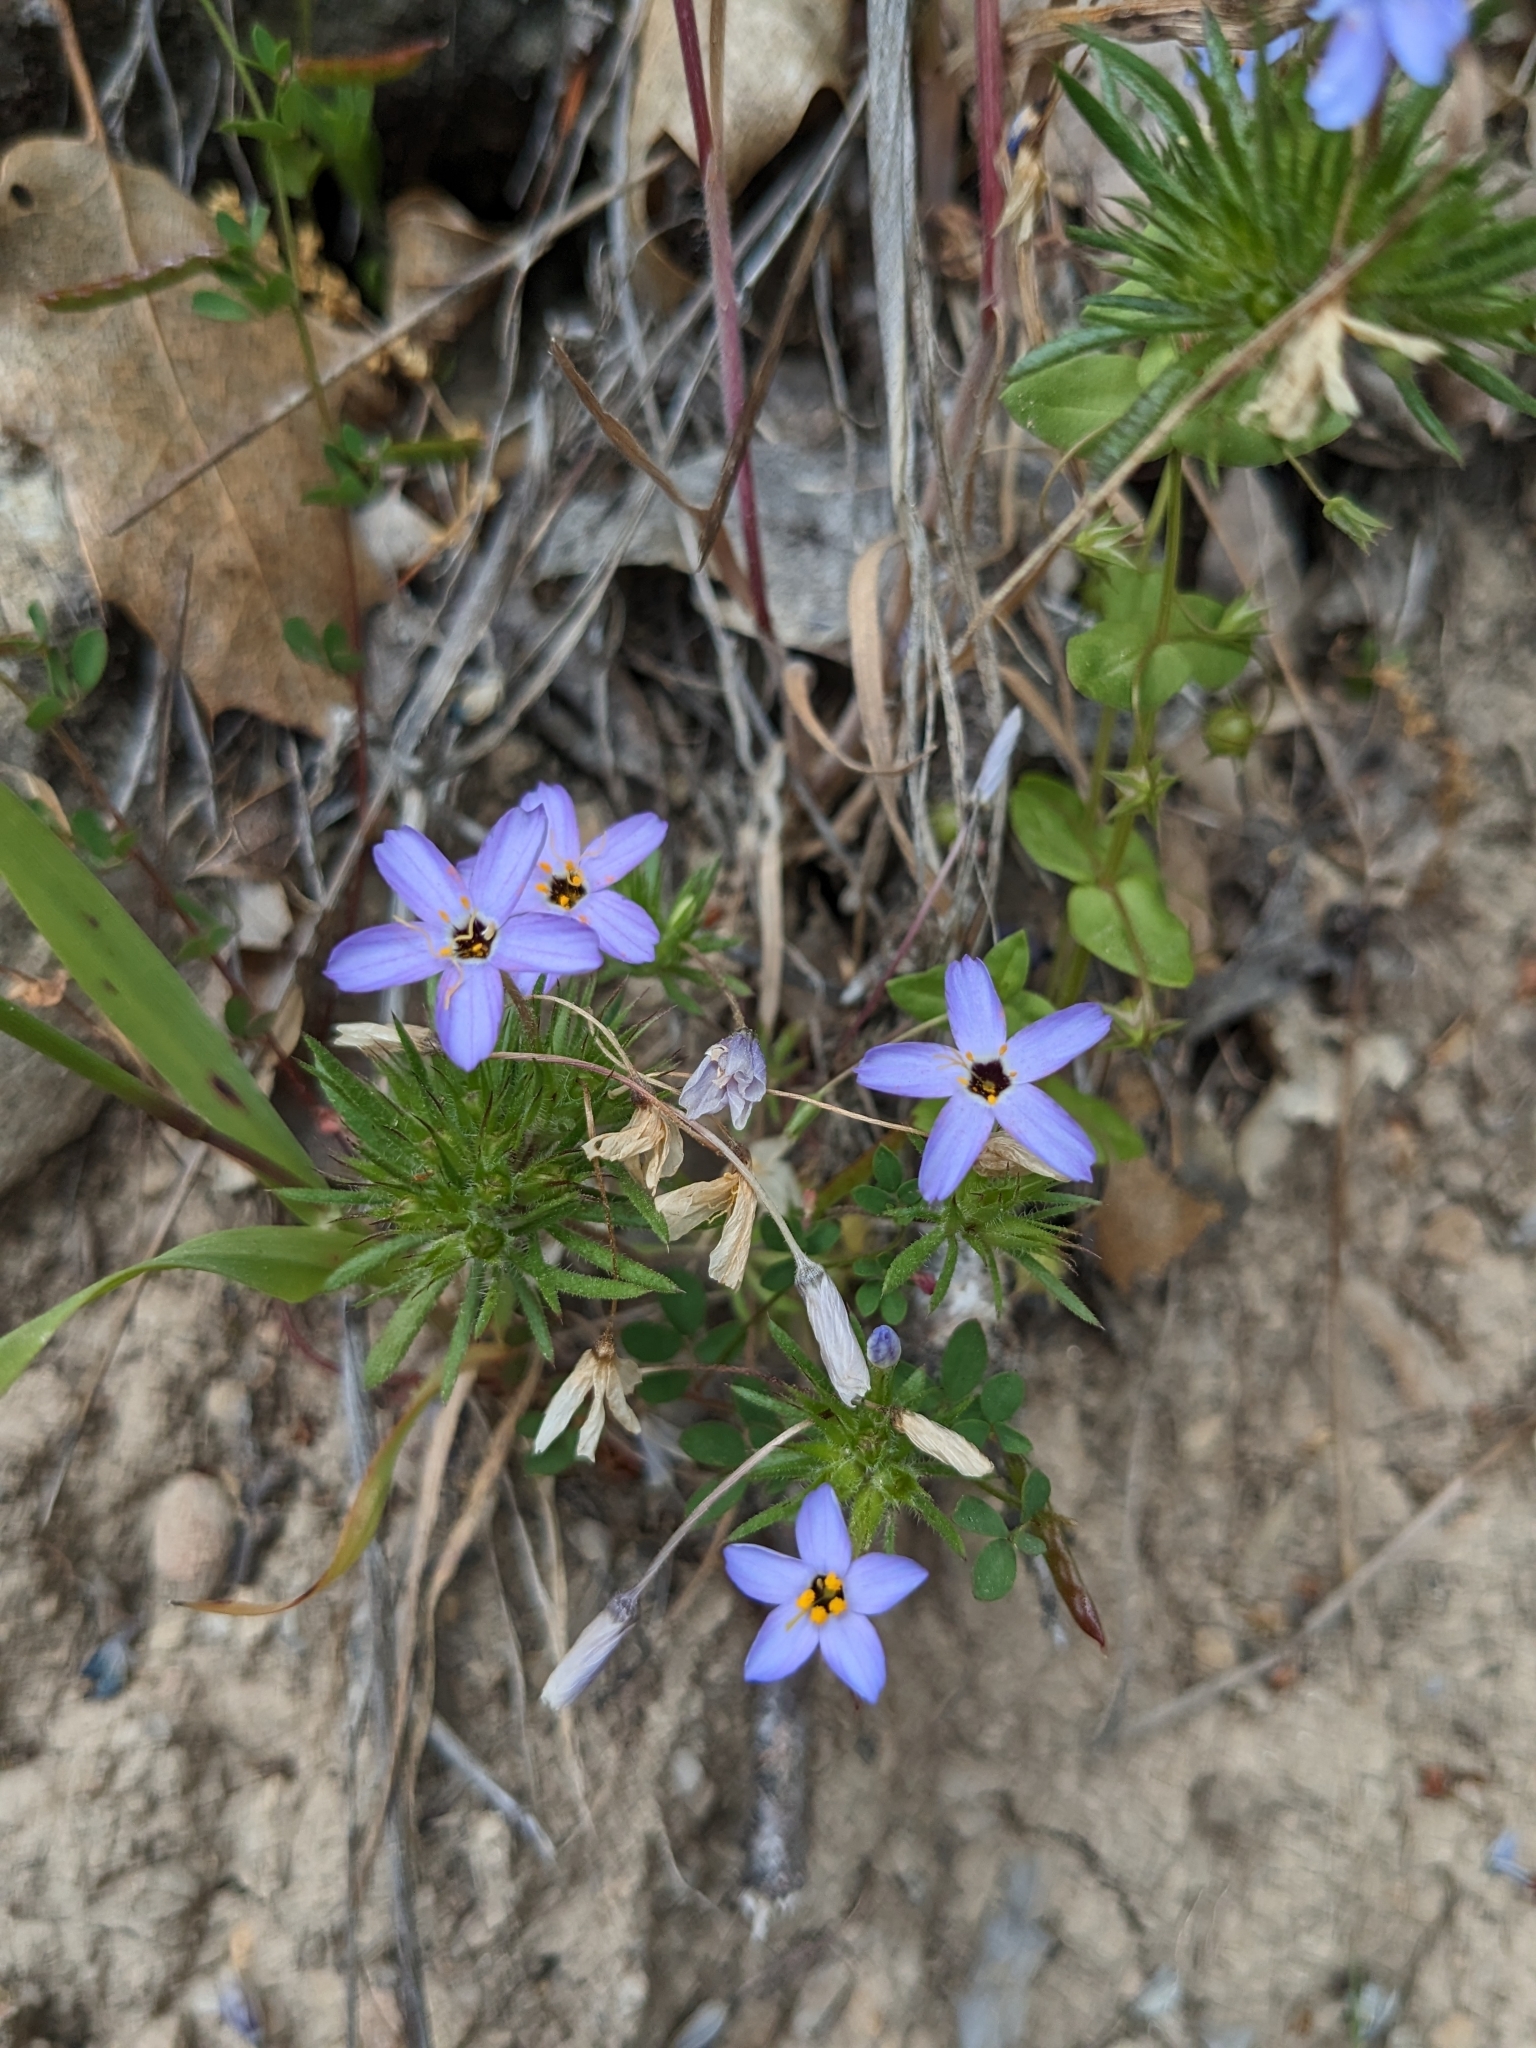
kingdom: Plantae
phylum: Tracheophyta
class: Magnoliopsida
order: Ericales
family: Polemoniaceae
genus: Leptosiphon
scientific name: Leptosiphon androsaceus
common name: False babystars
